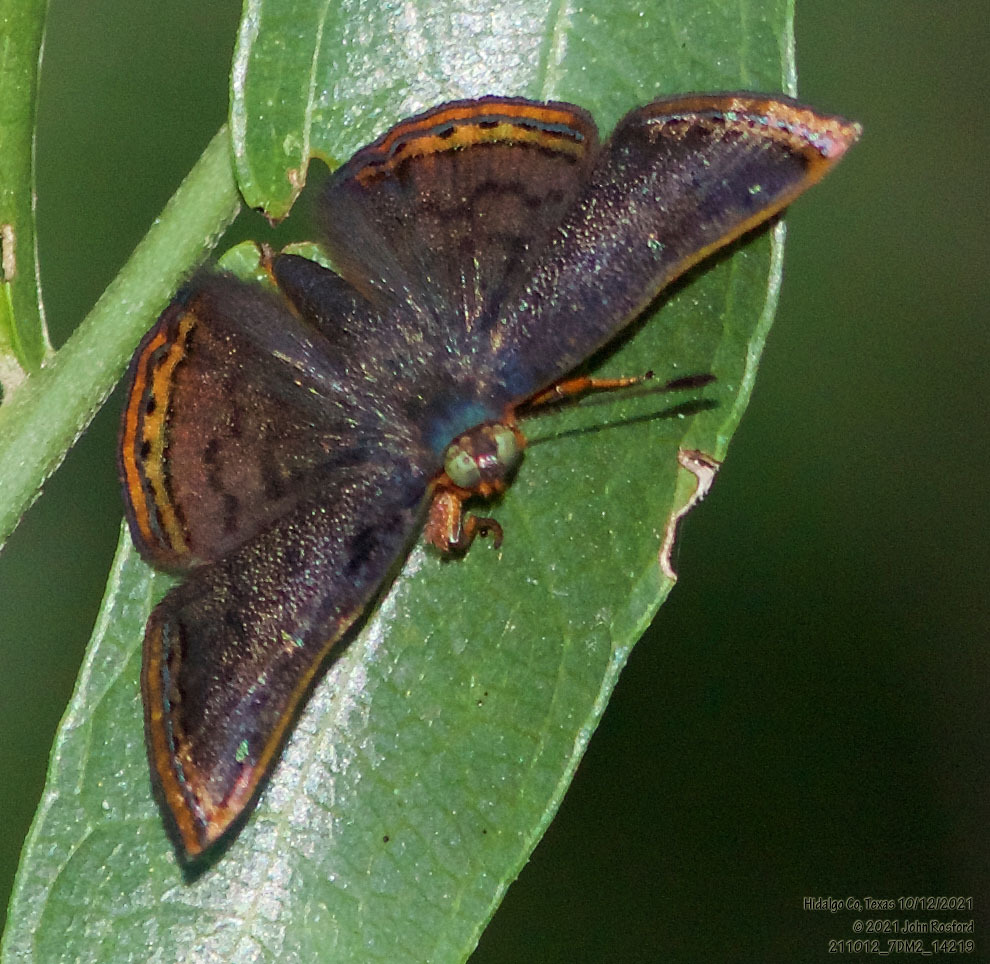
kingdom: Animalia
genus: Caria
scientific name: Caria ino
